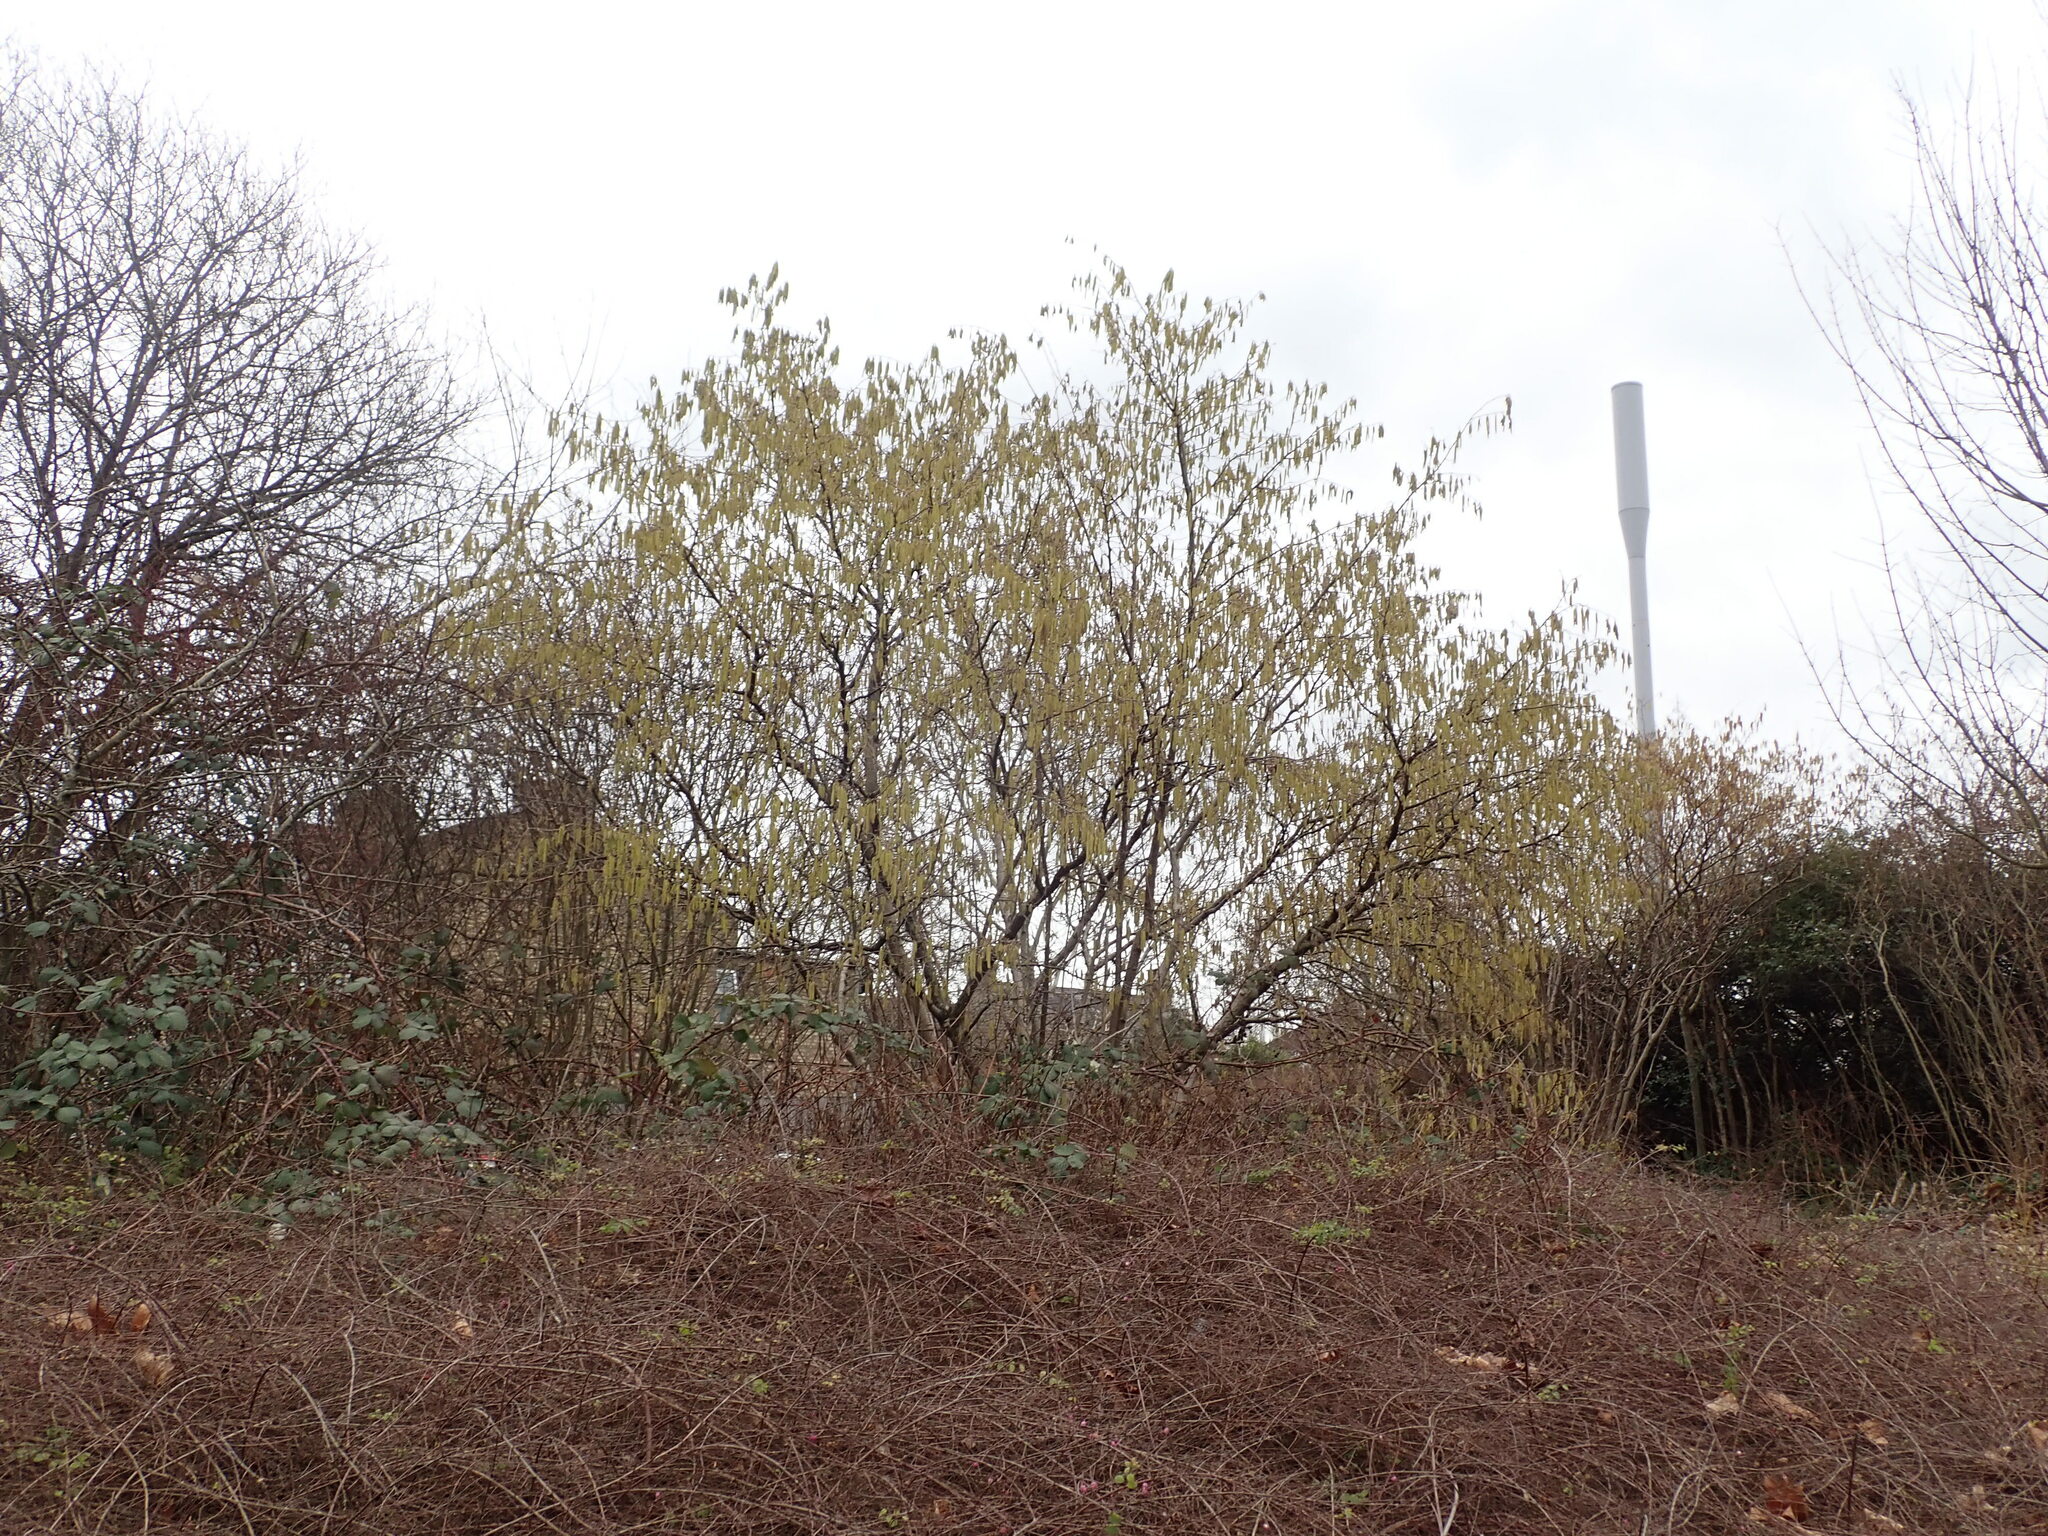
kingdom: Plantae
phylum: Tracheophyta
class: Magnoliopsida
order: Fagales
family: Betulaceae
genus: Corylus
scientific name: Corylus avellana
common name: European hazel
